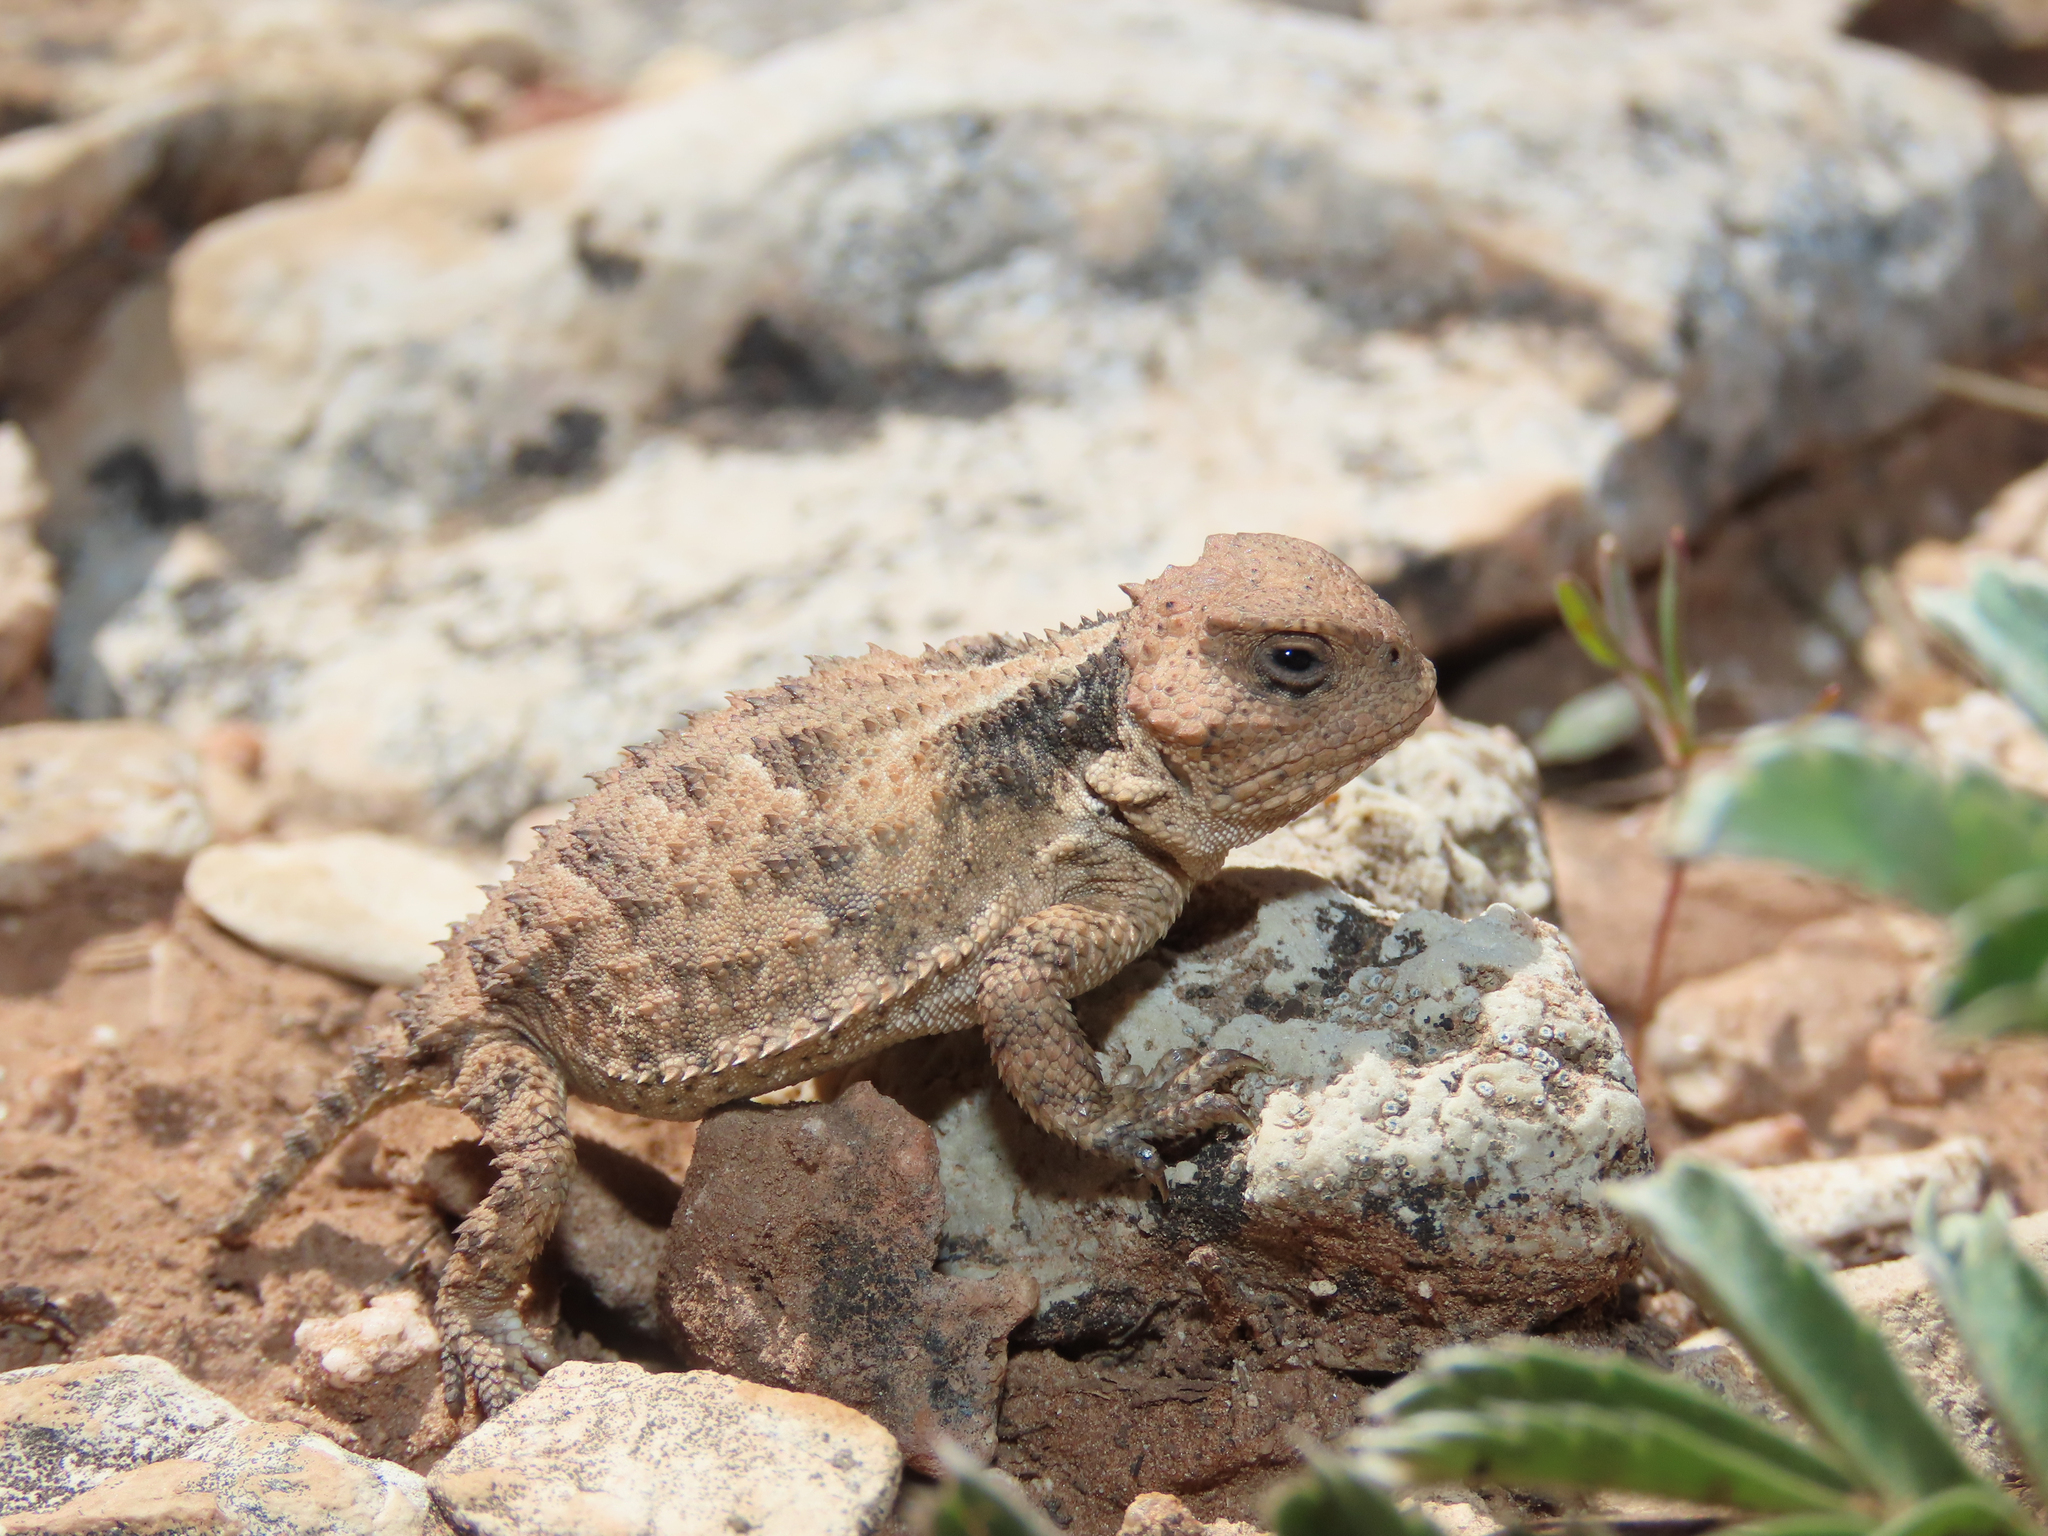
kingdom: Animalia
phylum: Chordata
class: Squamata
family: Phrynosomatidae
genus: Phrynosoma
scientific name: Phrynosoma hernandesi
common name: Greater short-horned lizard
